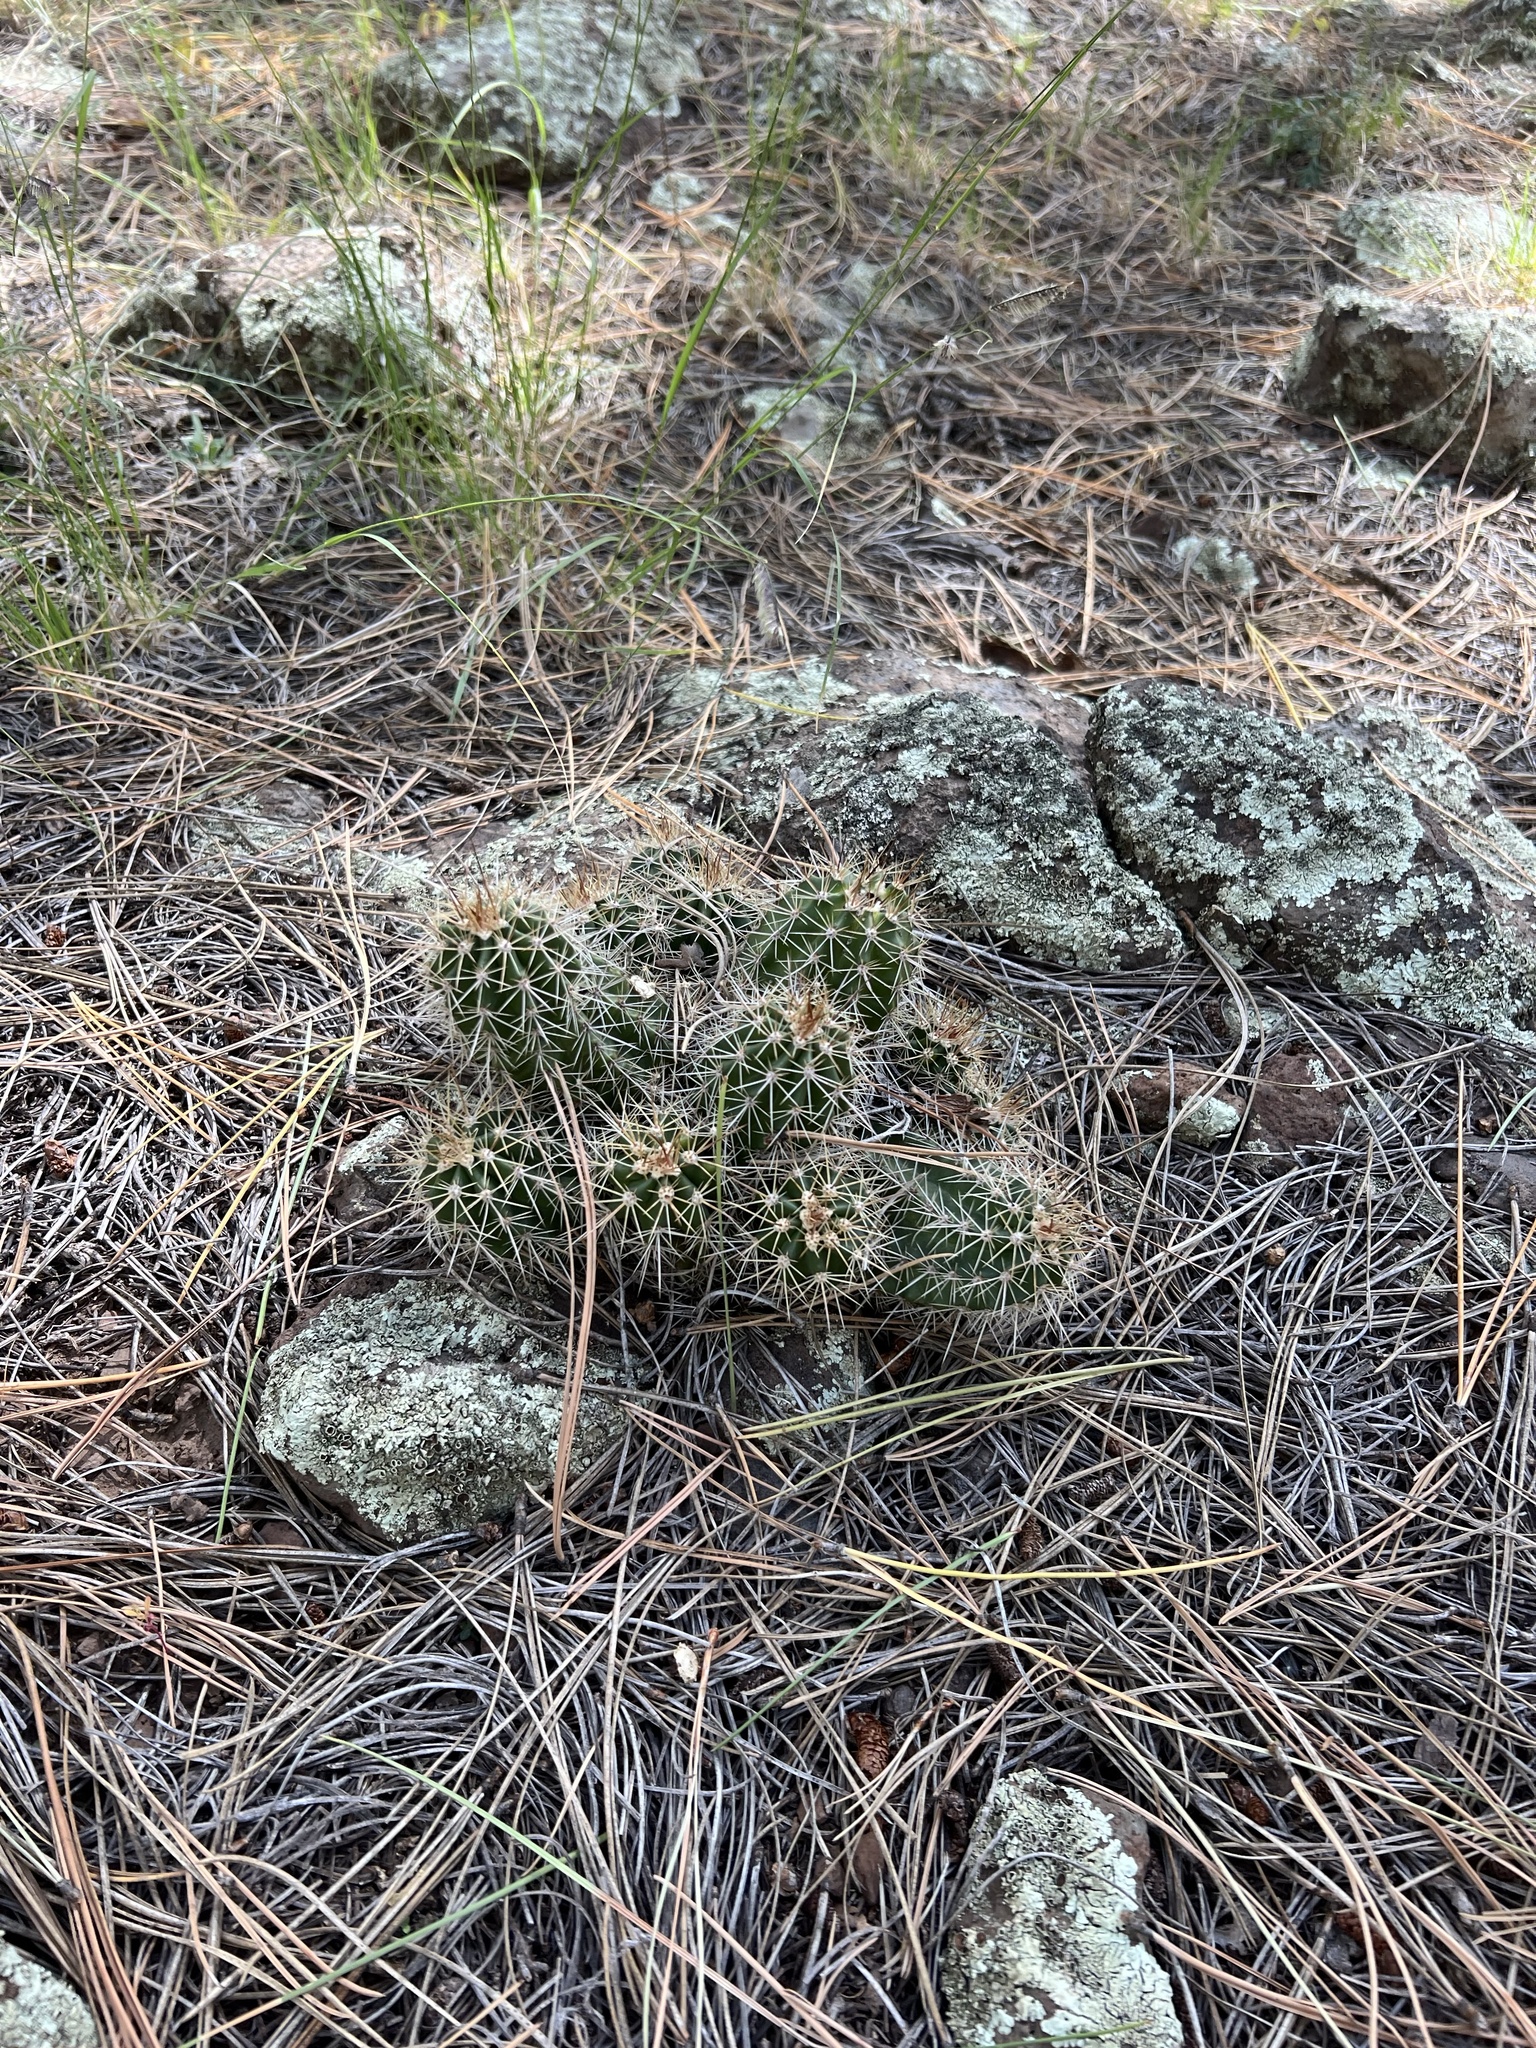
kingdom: Plantae
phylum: Tracheophyta
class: Magnoliopsida
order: Caryophyllales
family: Cactaceae
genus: Echinocereus
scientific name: Echinocereus bakeri
